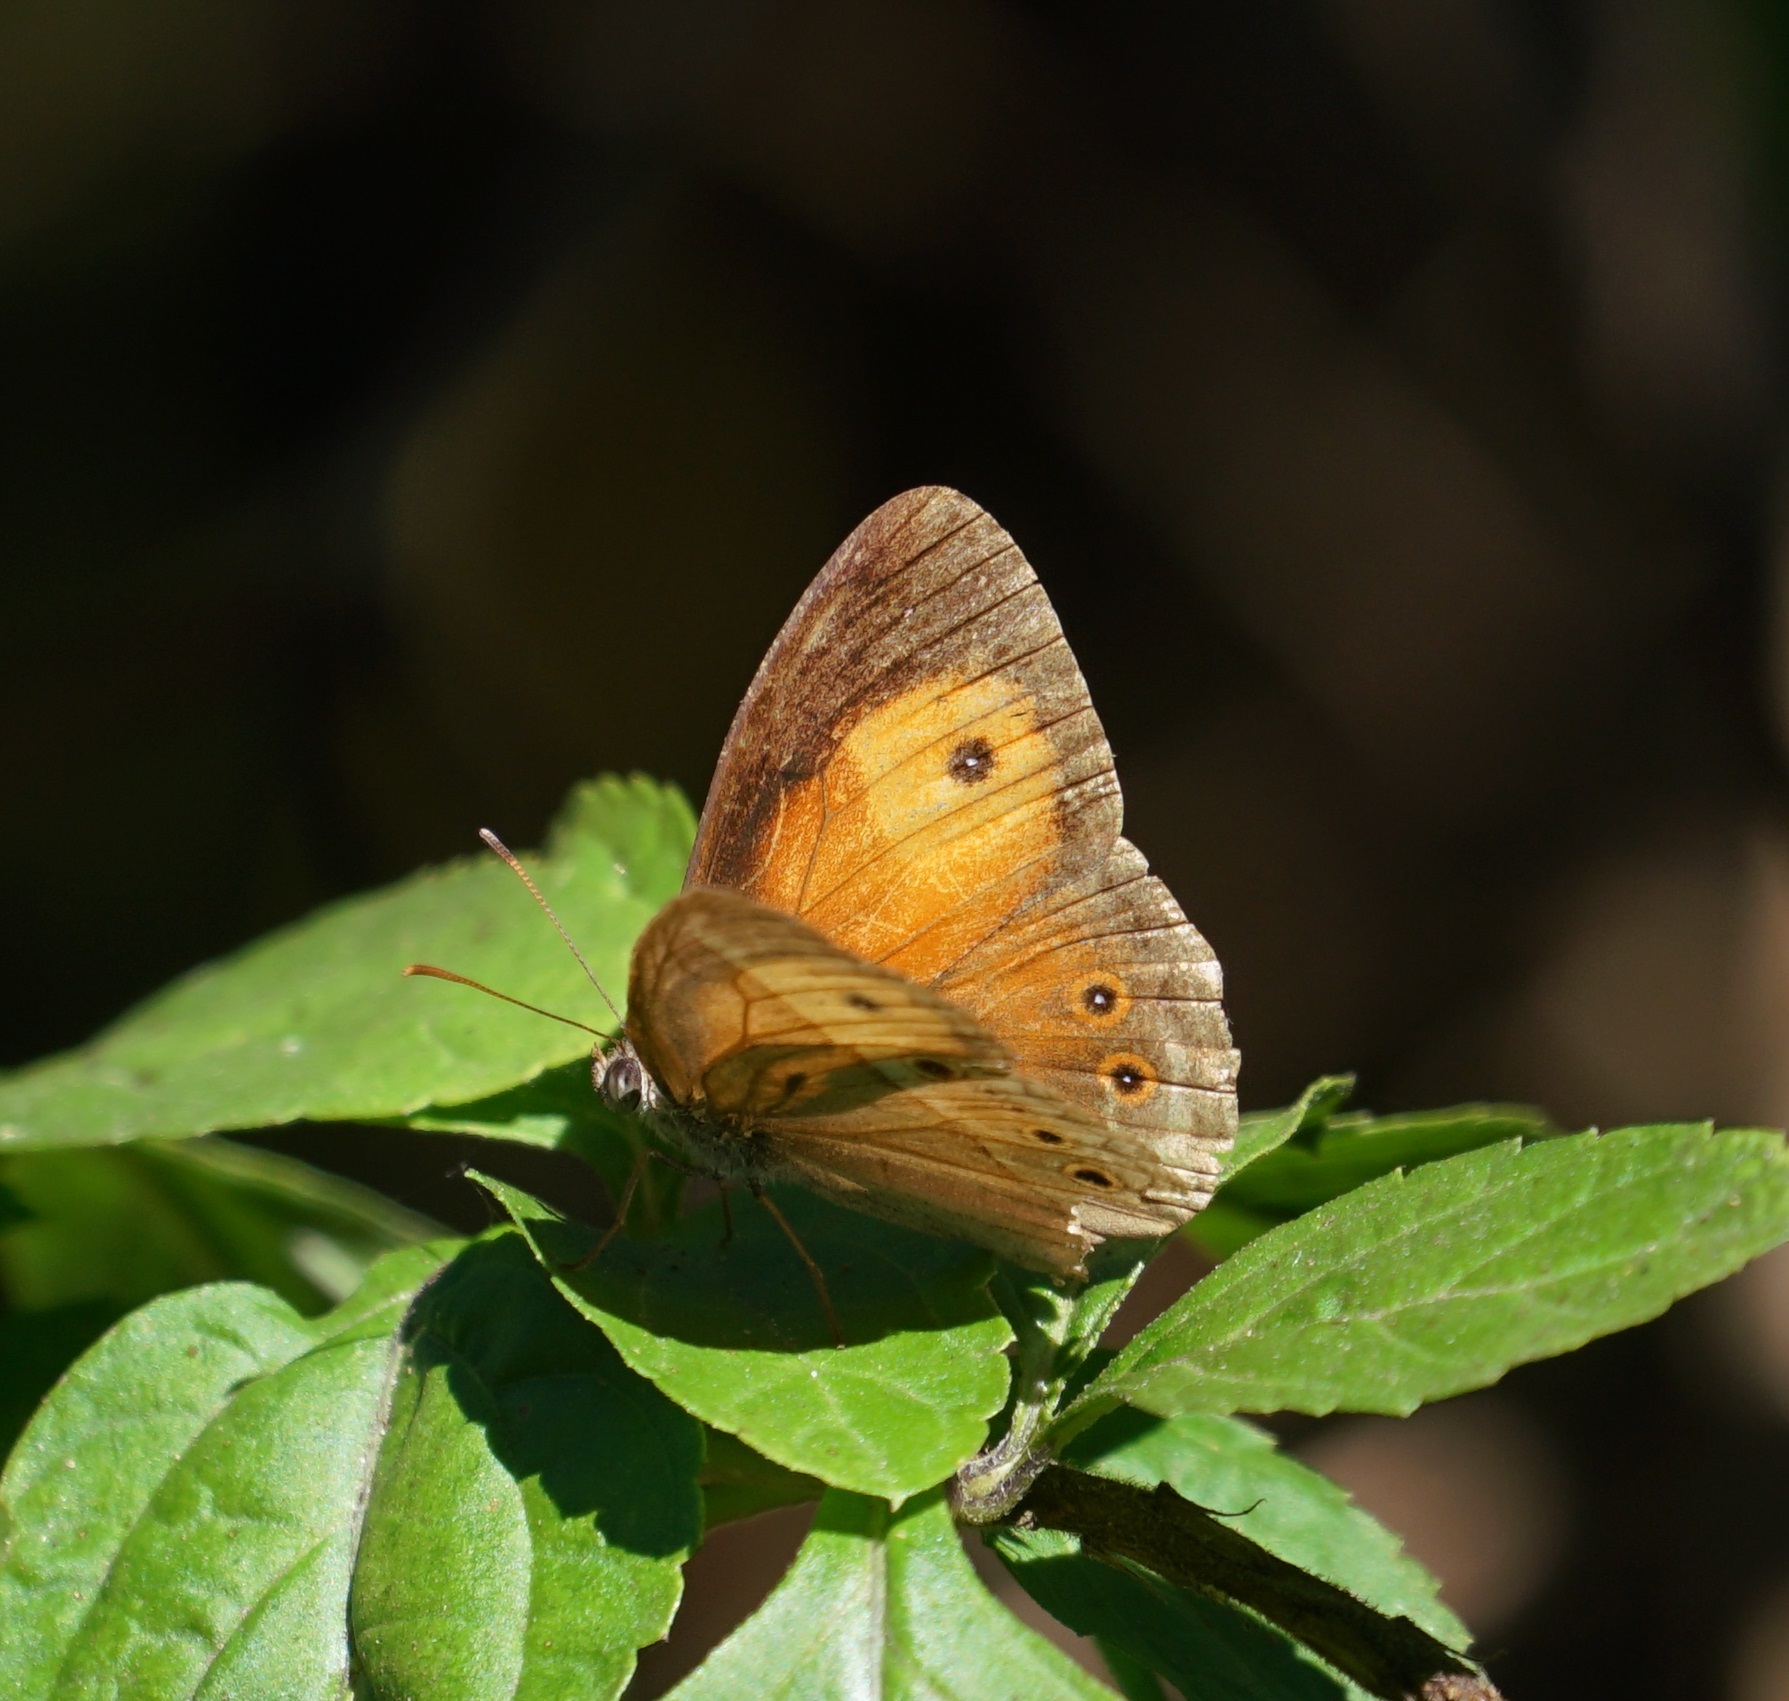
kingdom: Animalia
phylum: Arthropoda
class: Insecta
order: Lepidoptera
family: Nymphalidae
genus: Mycalesis
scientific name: Mycalesis terminus
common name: Orange bushbrown
